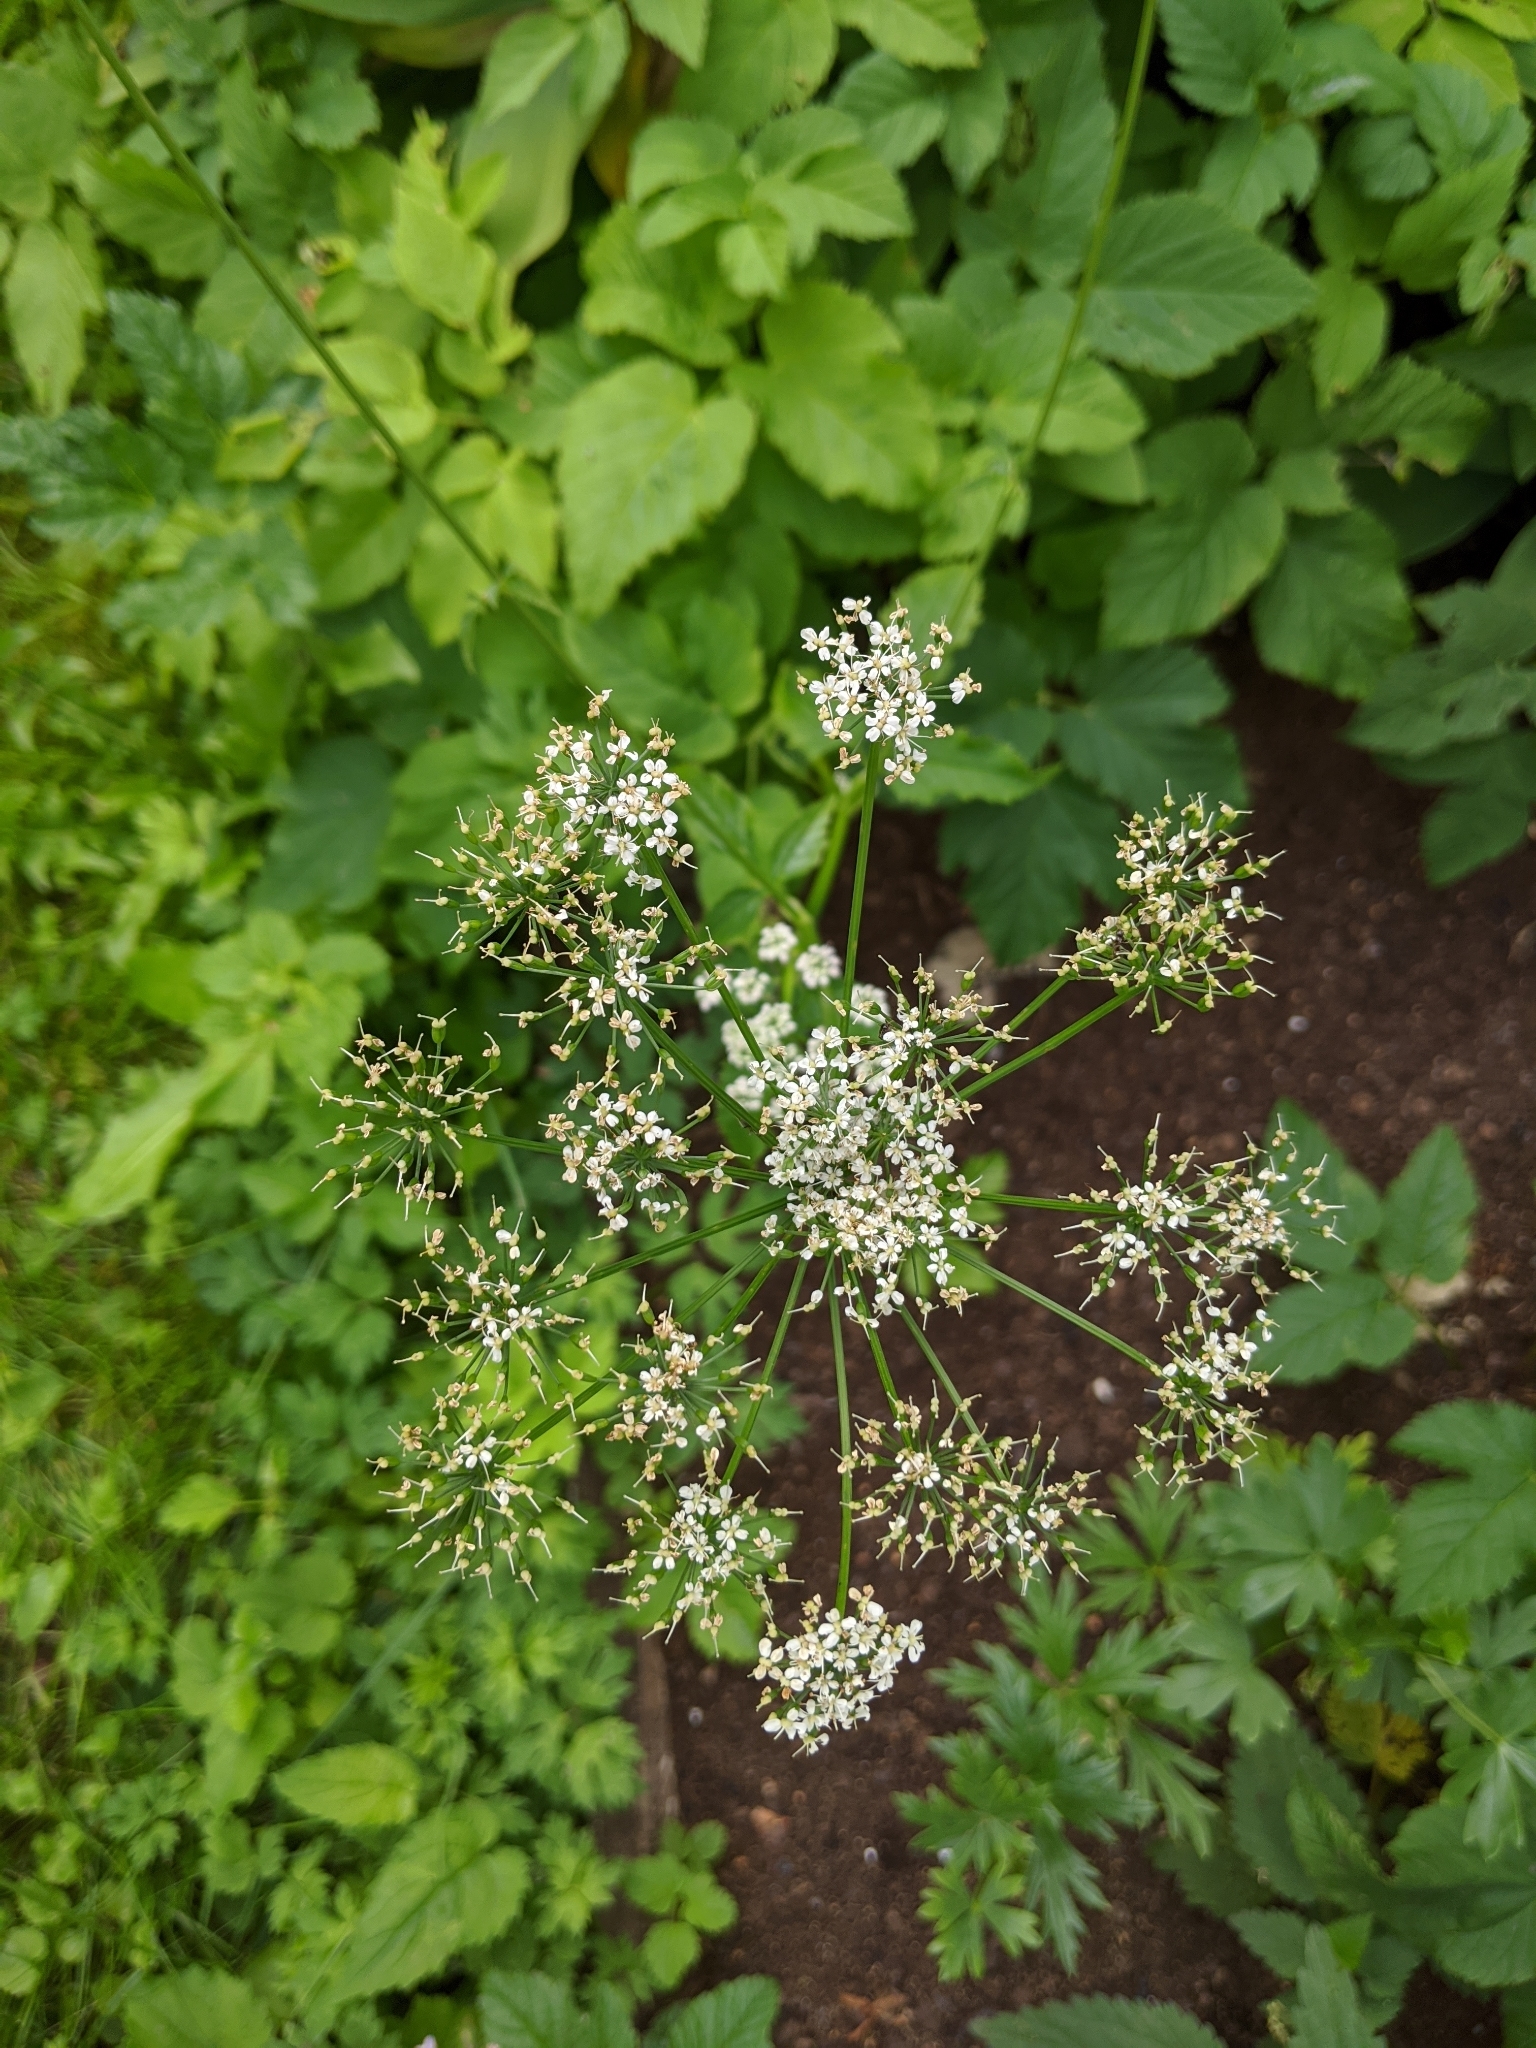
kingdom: Plantae
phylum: Tracheophyta
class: Magnoliopsida
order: Apiales
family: Apiaceae
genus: Aegopodium
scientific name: Aegopodium podagraria
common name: Ground-elder
